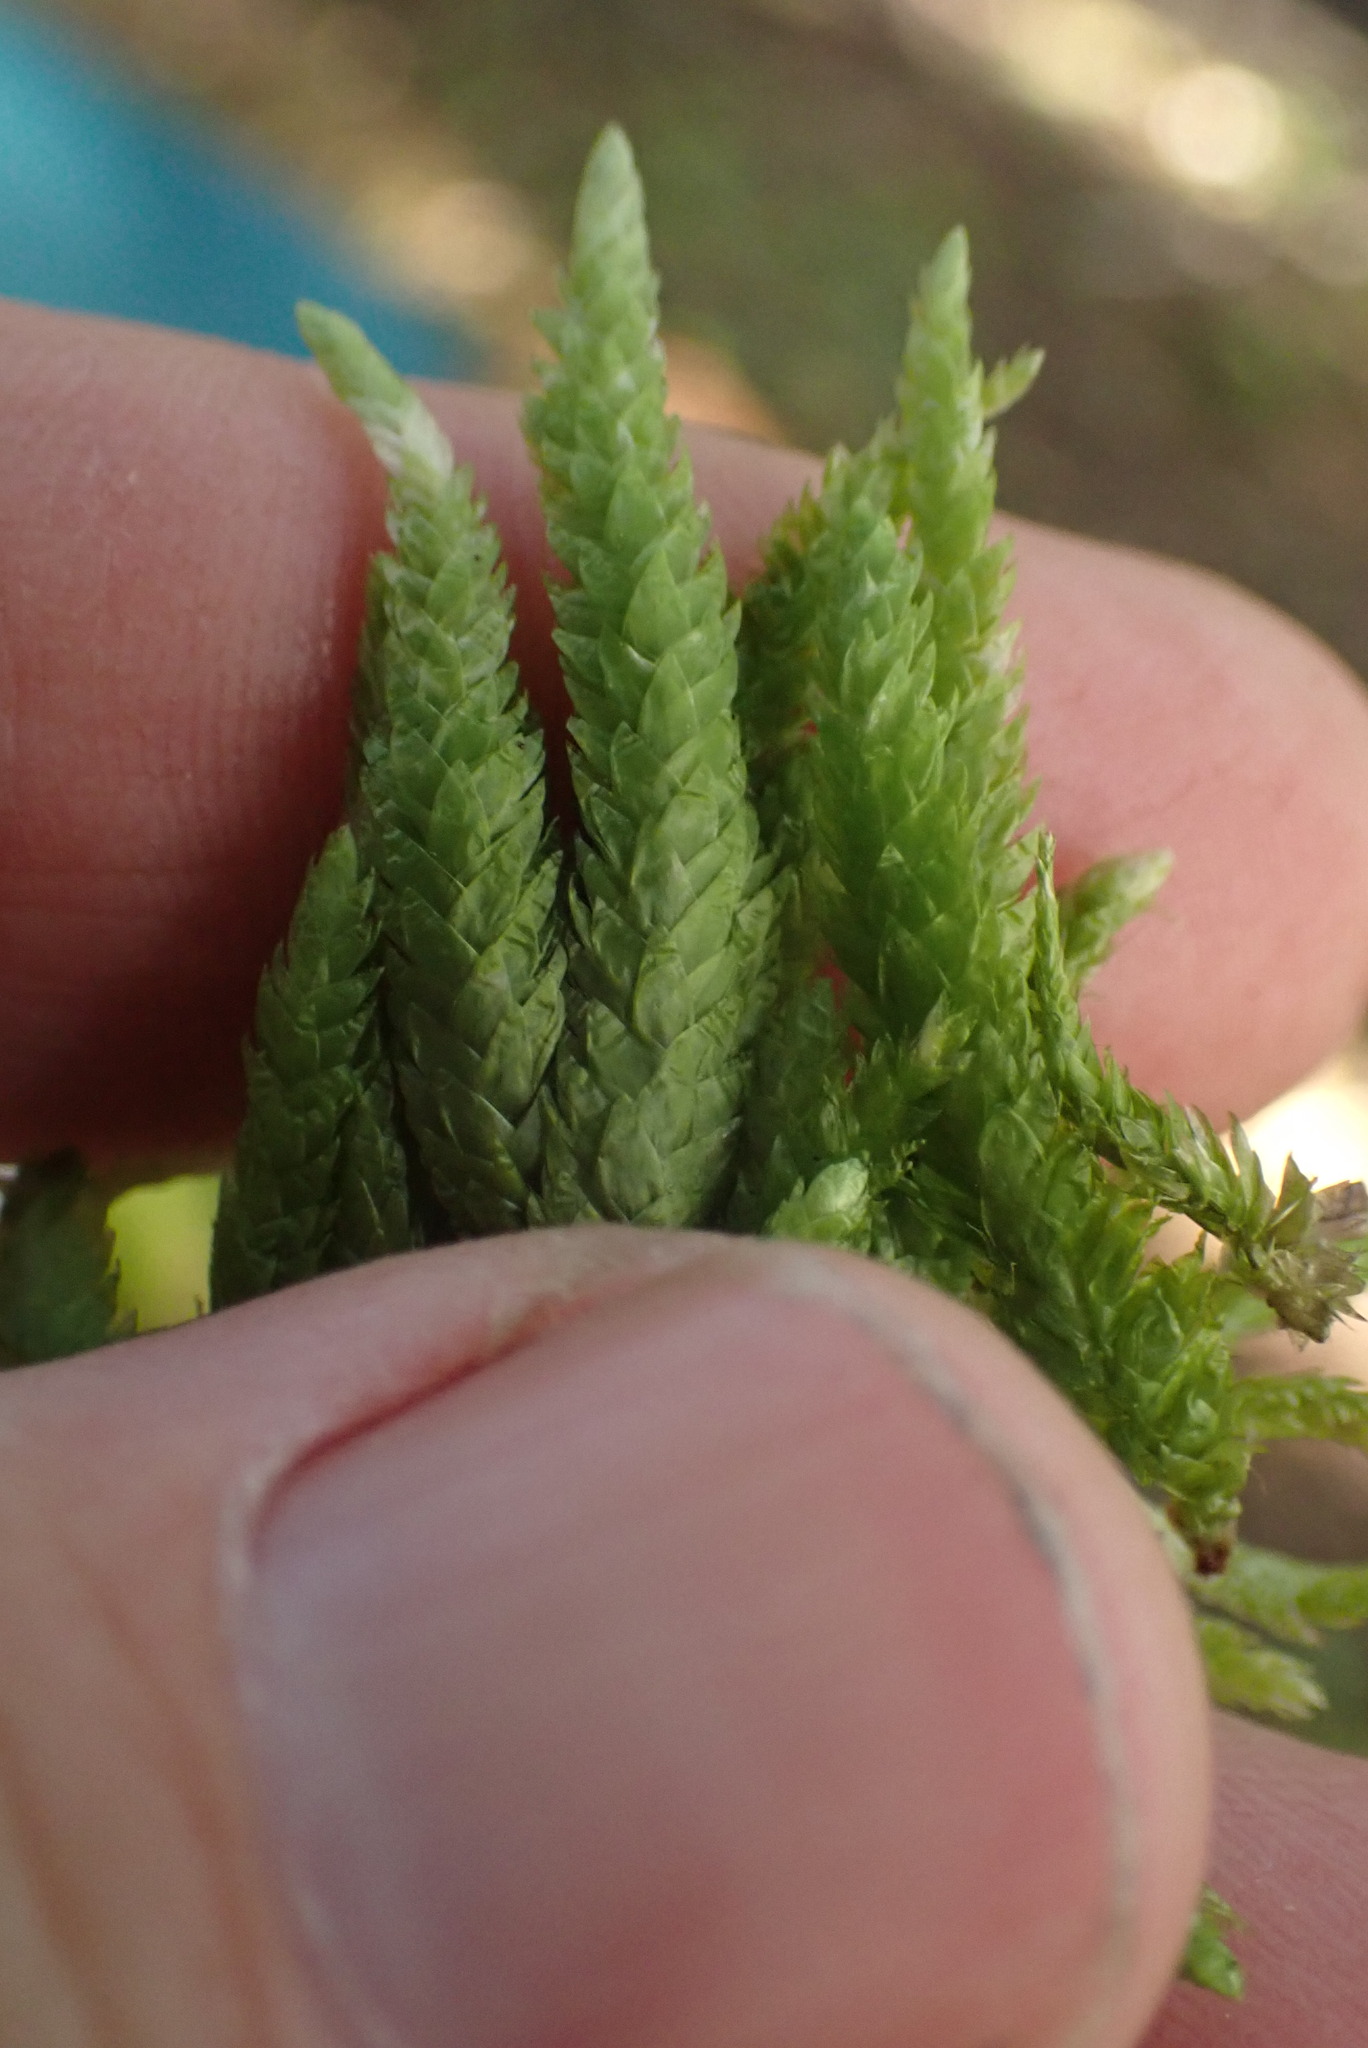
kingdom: Plantae
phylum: Bryophyta
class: Bryopsida
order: Hypnales
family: Plagiotheciaceae
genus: Plagiothecium
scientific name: Plagiothecium undulatum
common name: Waved silk-moss
